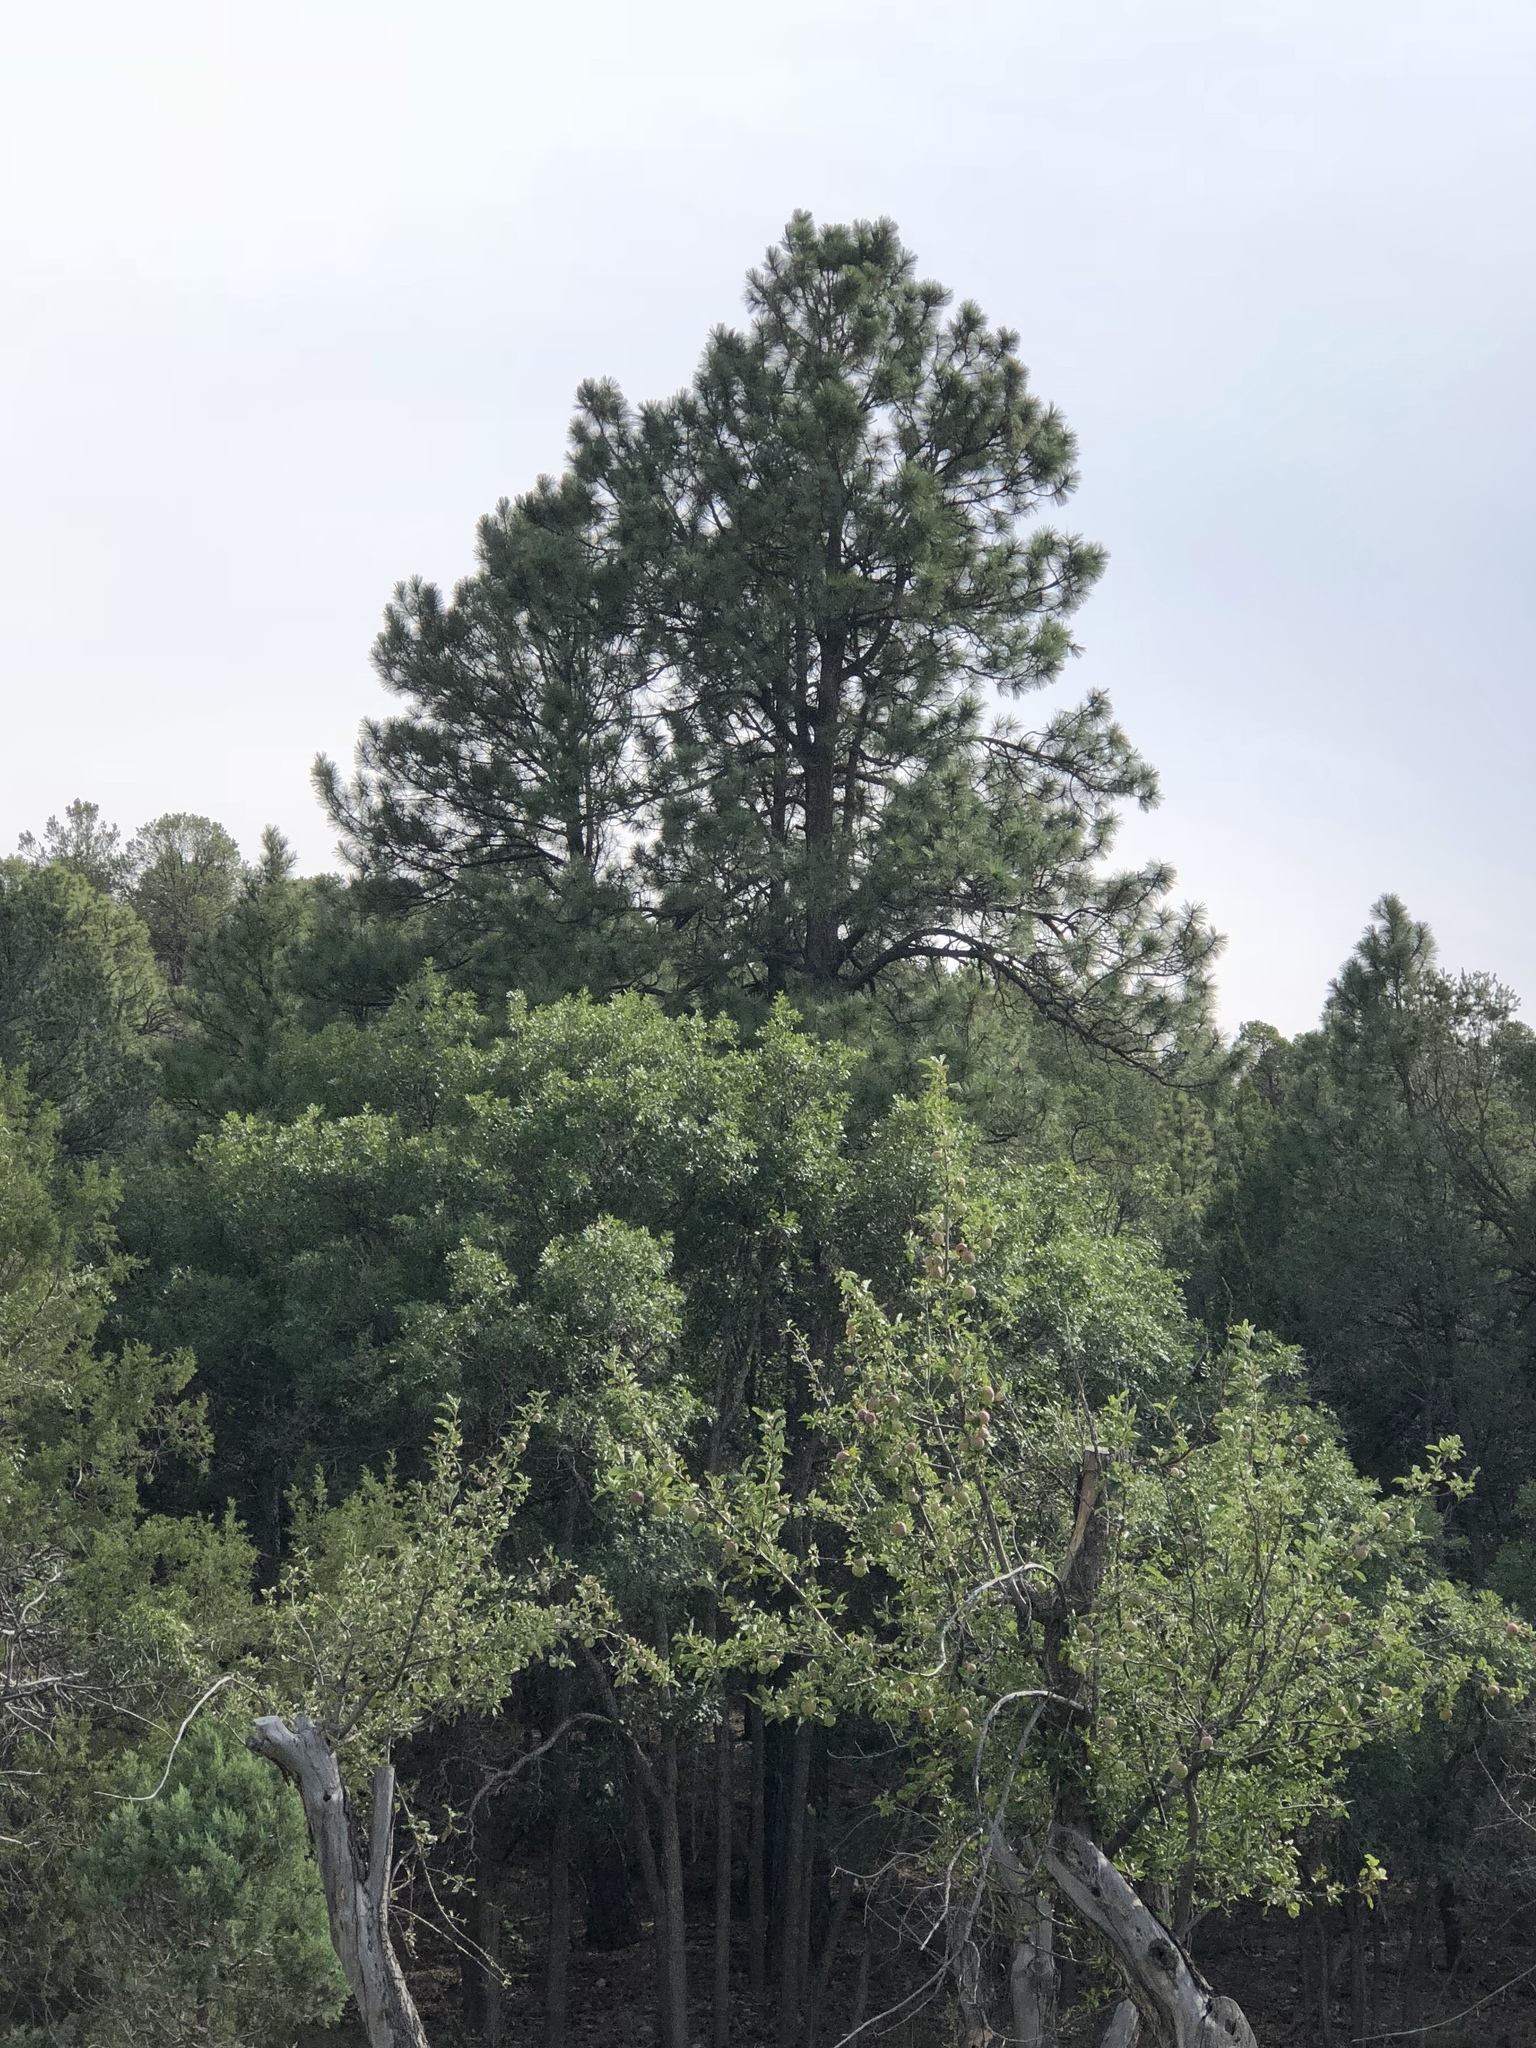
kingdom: Plantae
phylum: Tracheophyta
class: Pinopsida
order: Pinales
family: Pinaceae
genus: Pinus
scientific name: Pinus ponderosa
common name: Western yellow-pine
